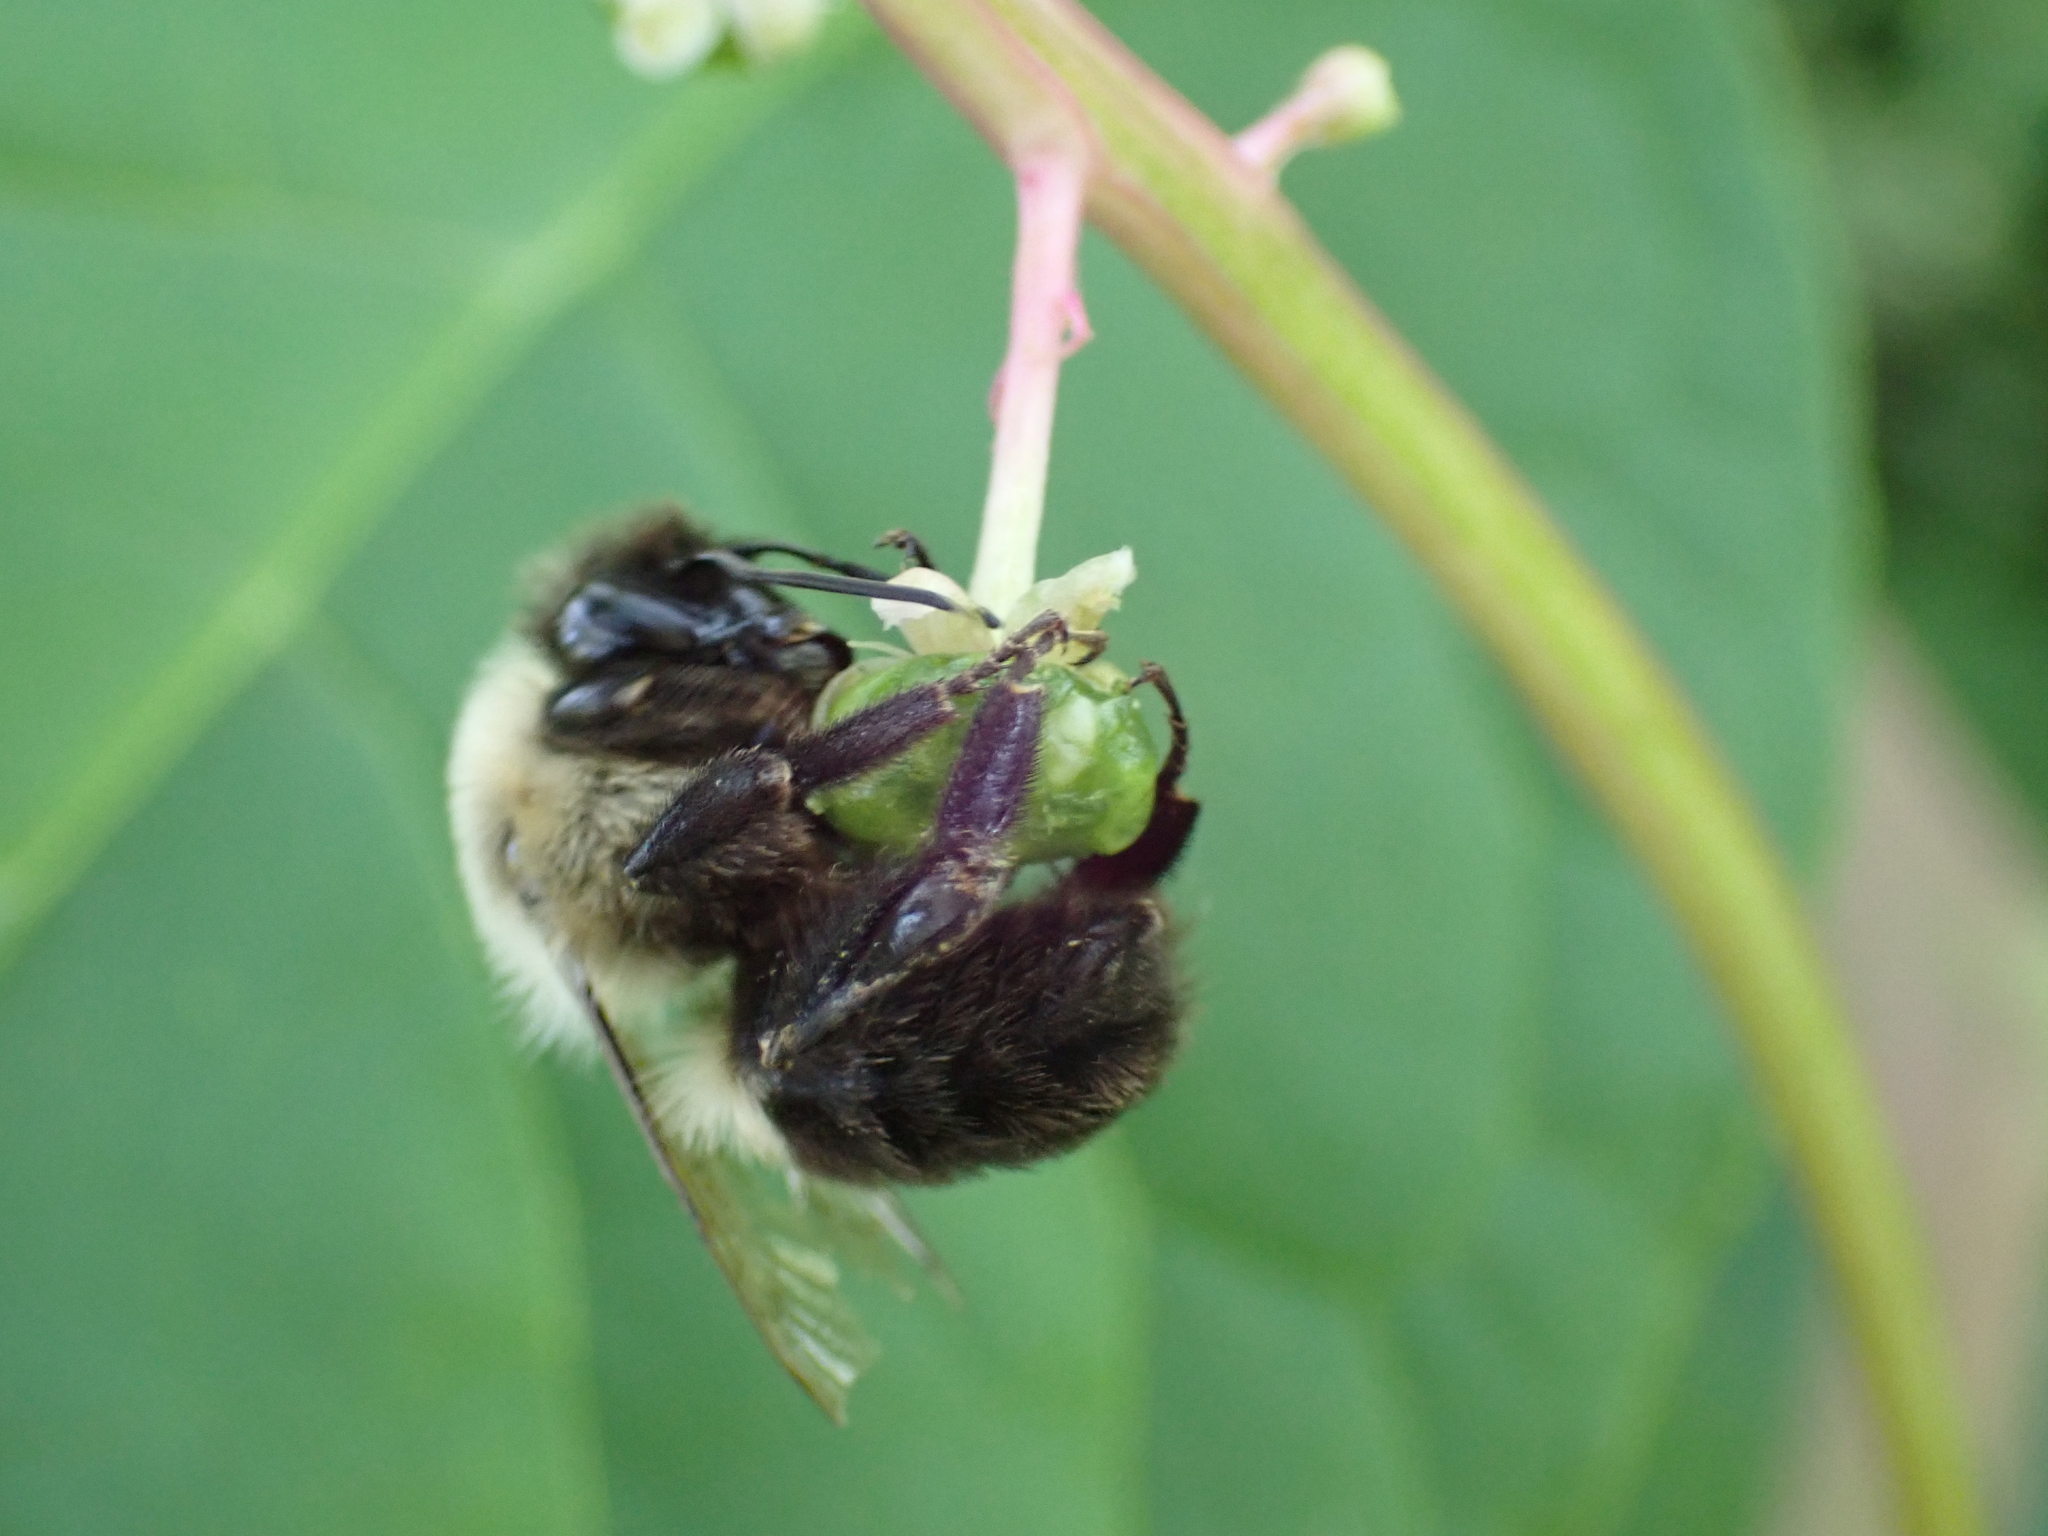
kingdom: Animalia
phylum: Arthropoda
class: Insecta
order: Hymenoptera
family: Apidae
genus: Bombus
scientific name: Bombus impatiens
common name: Common eastern bumble bee
